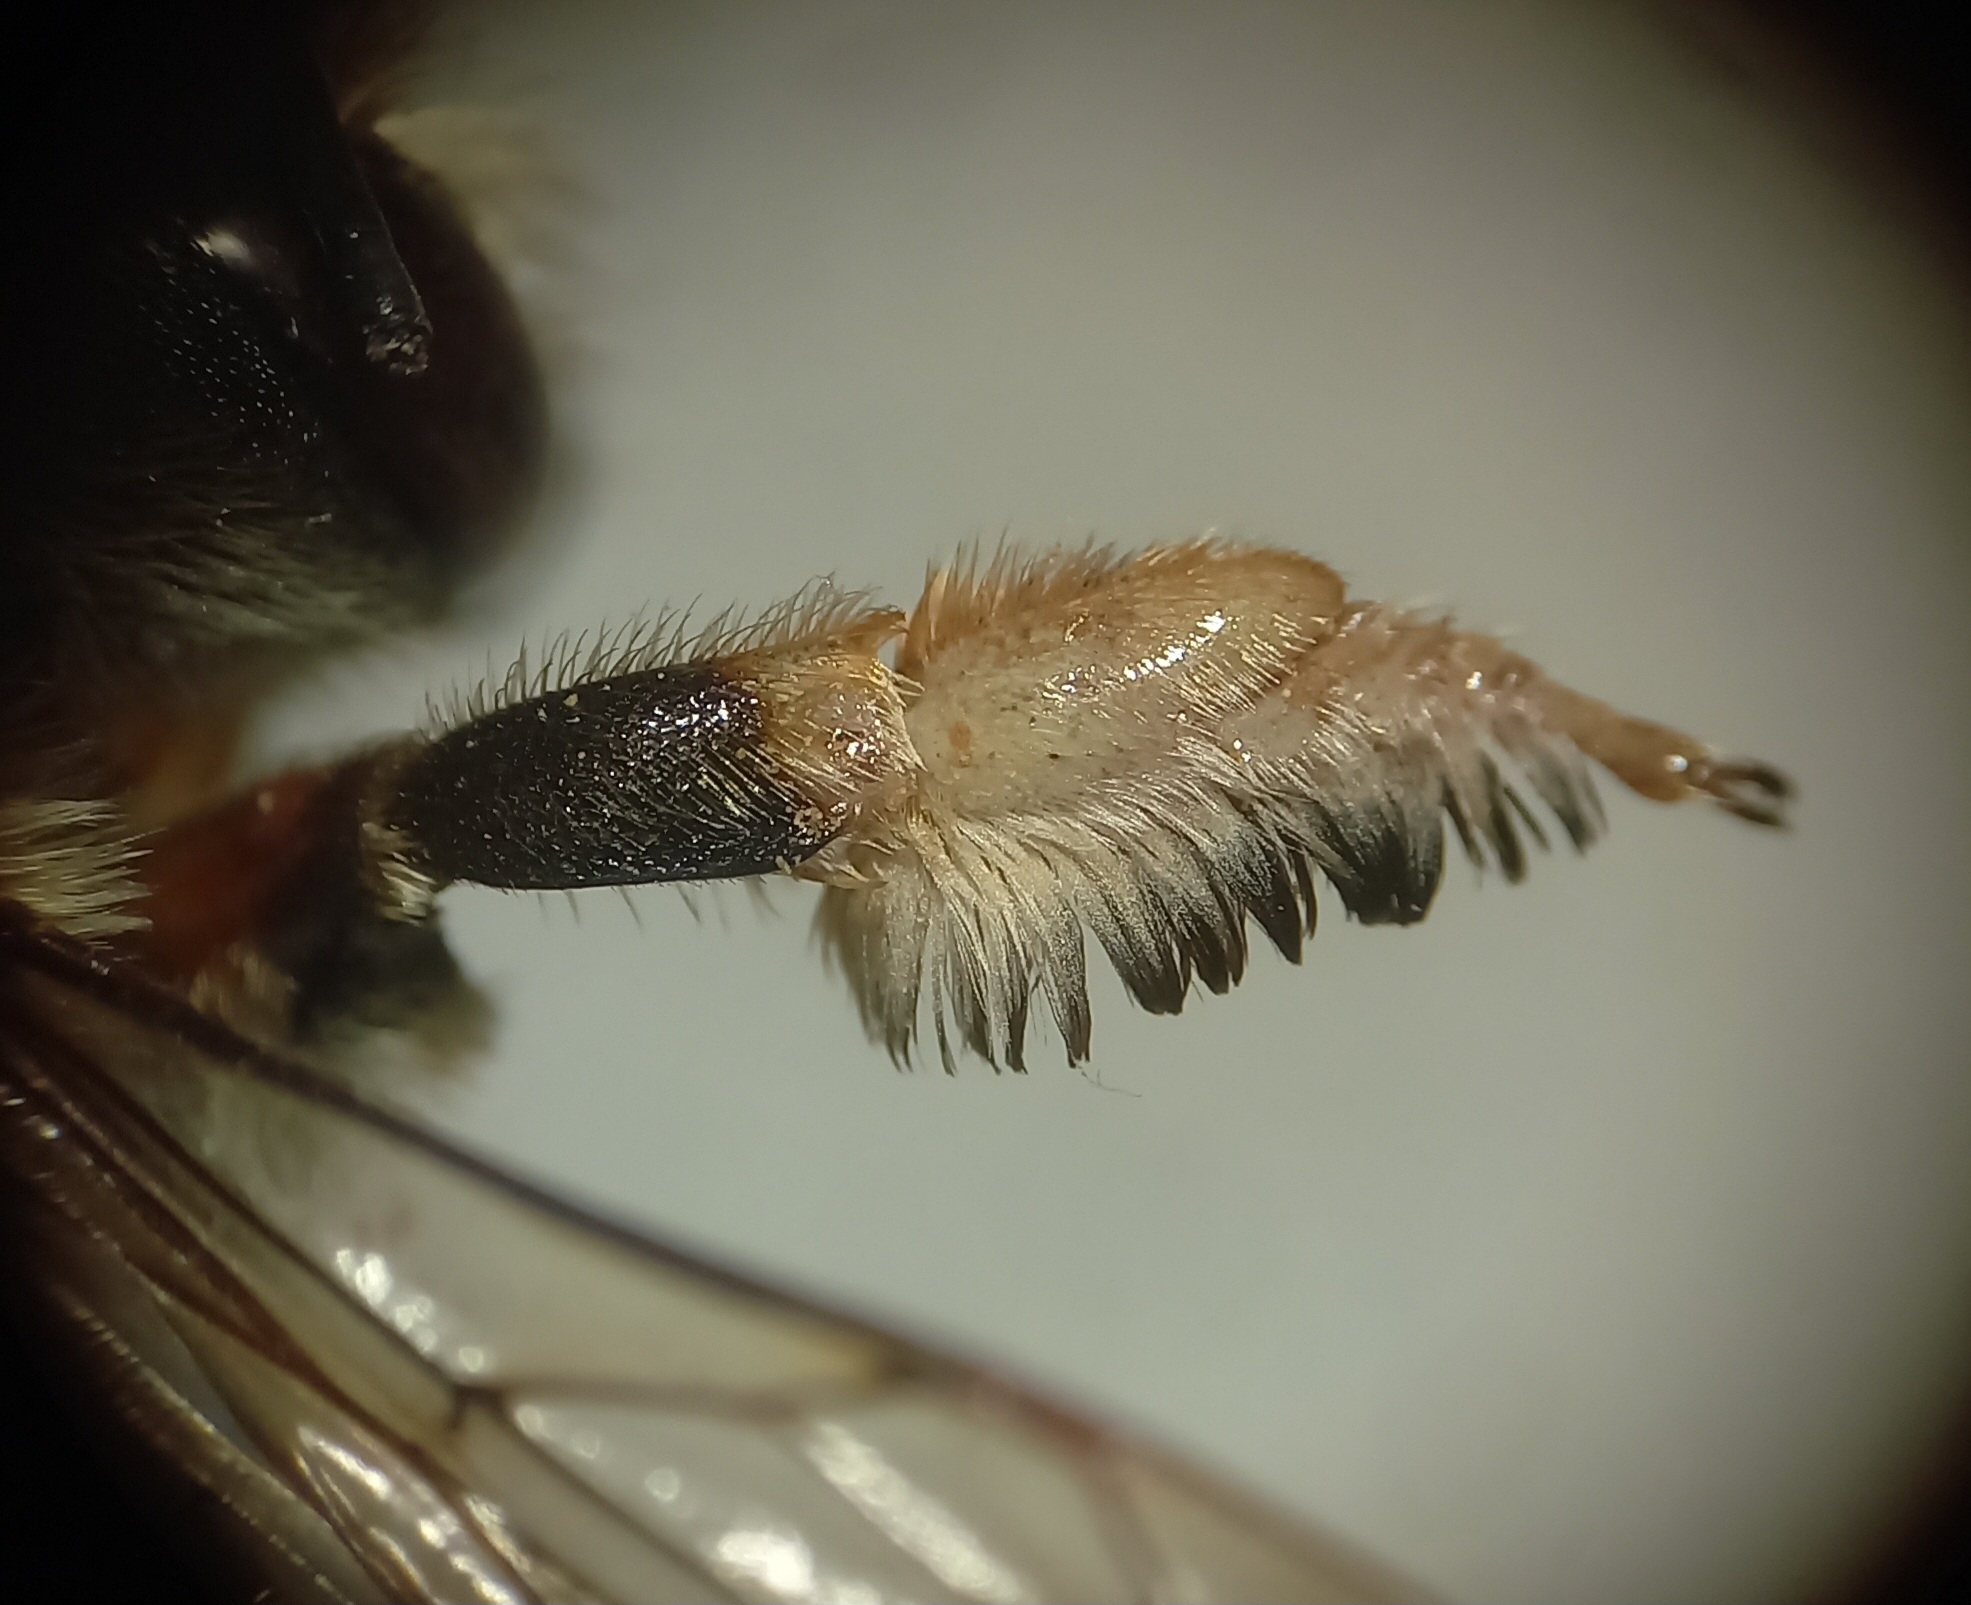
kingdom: Animalia
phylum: Arthropoda
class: Insecta
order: Hymenoptera
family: Megachilidae
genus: Megachile
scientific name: Megachile lagopoda
